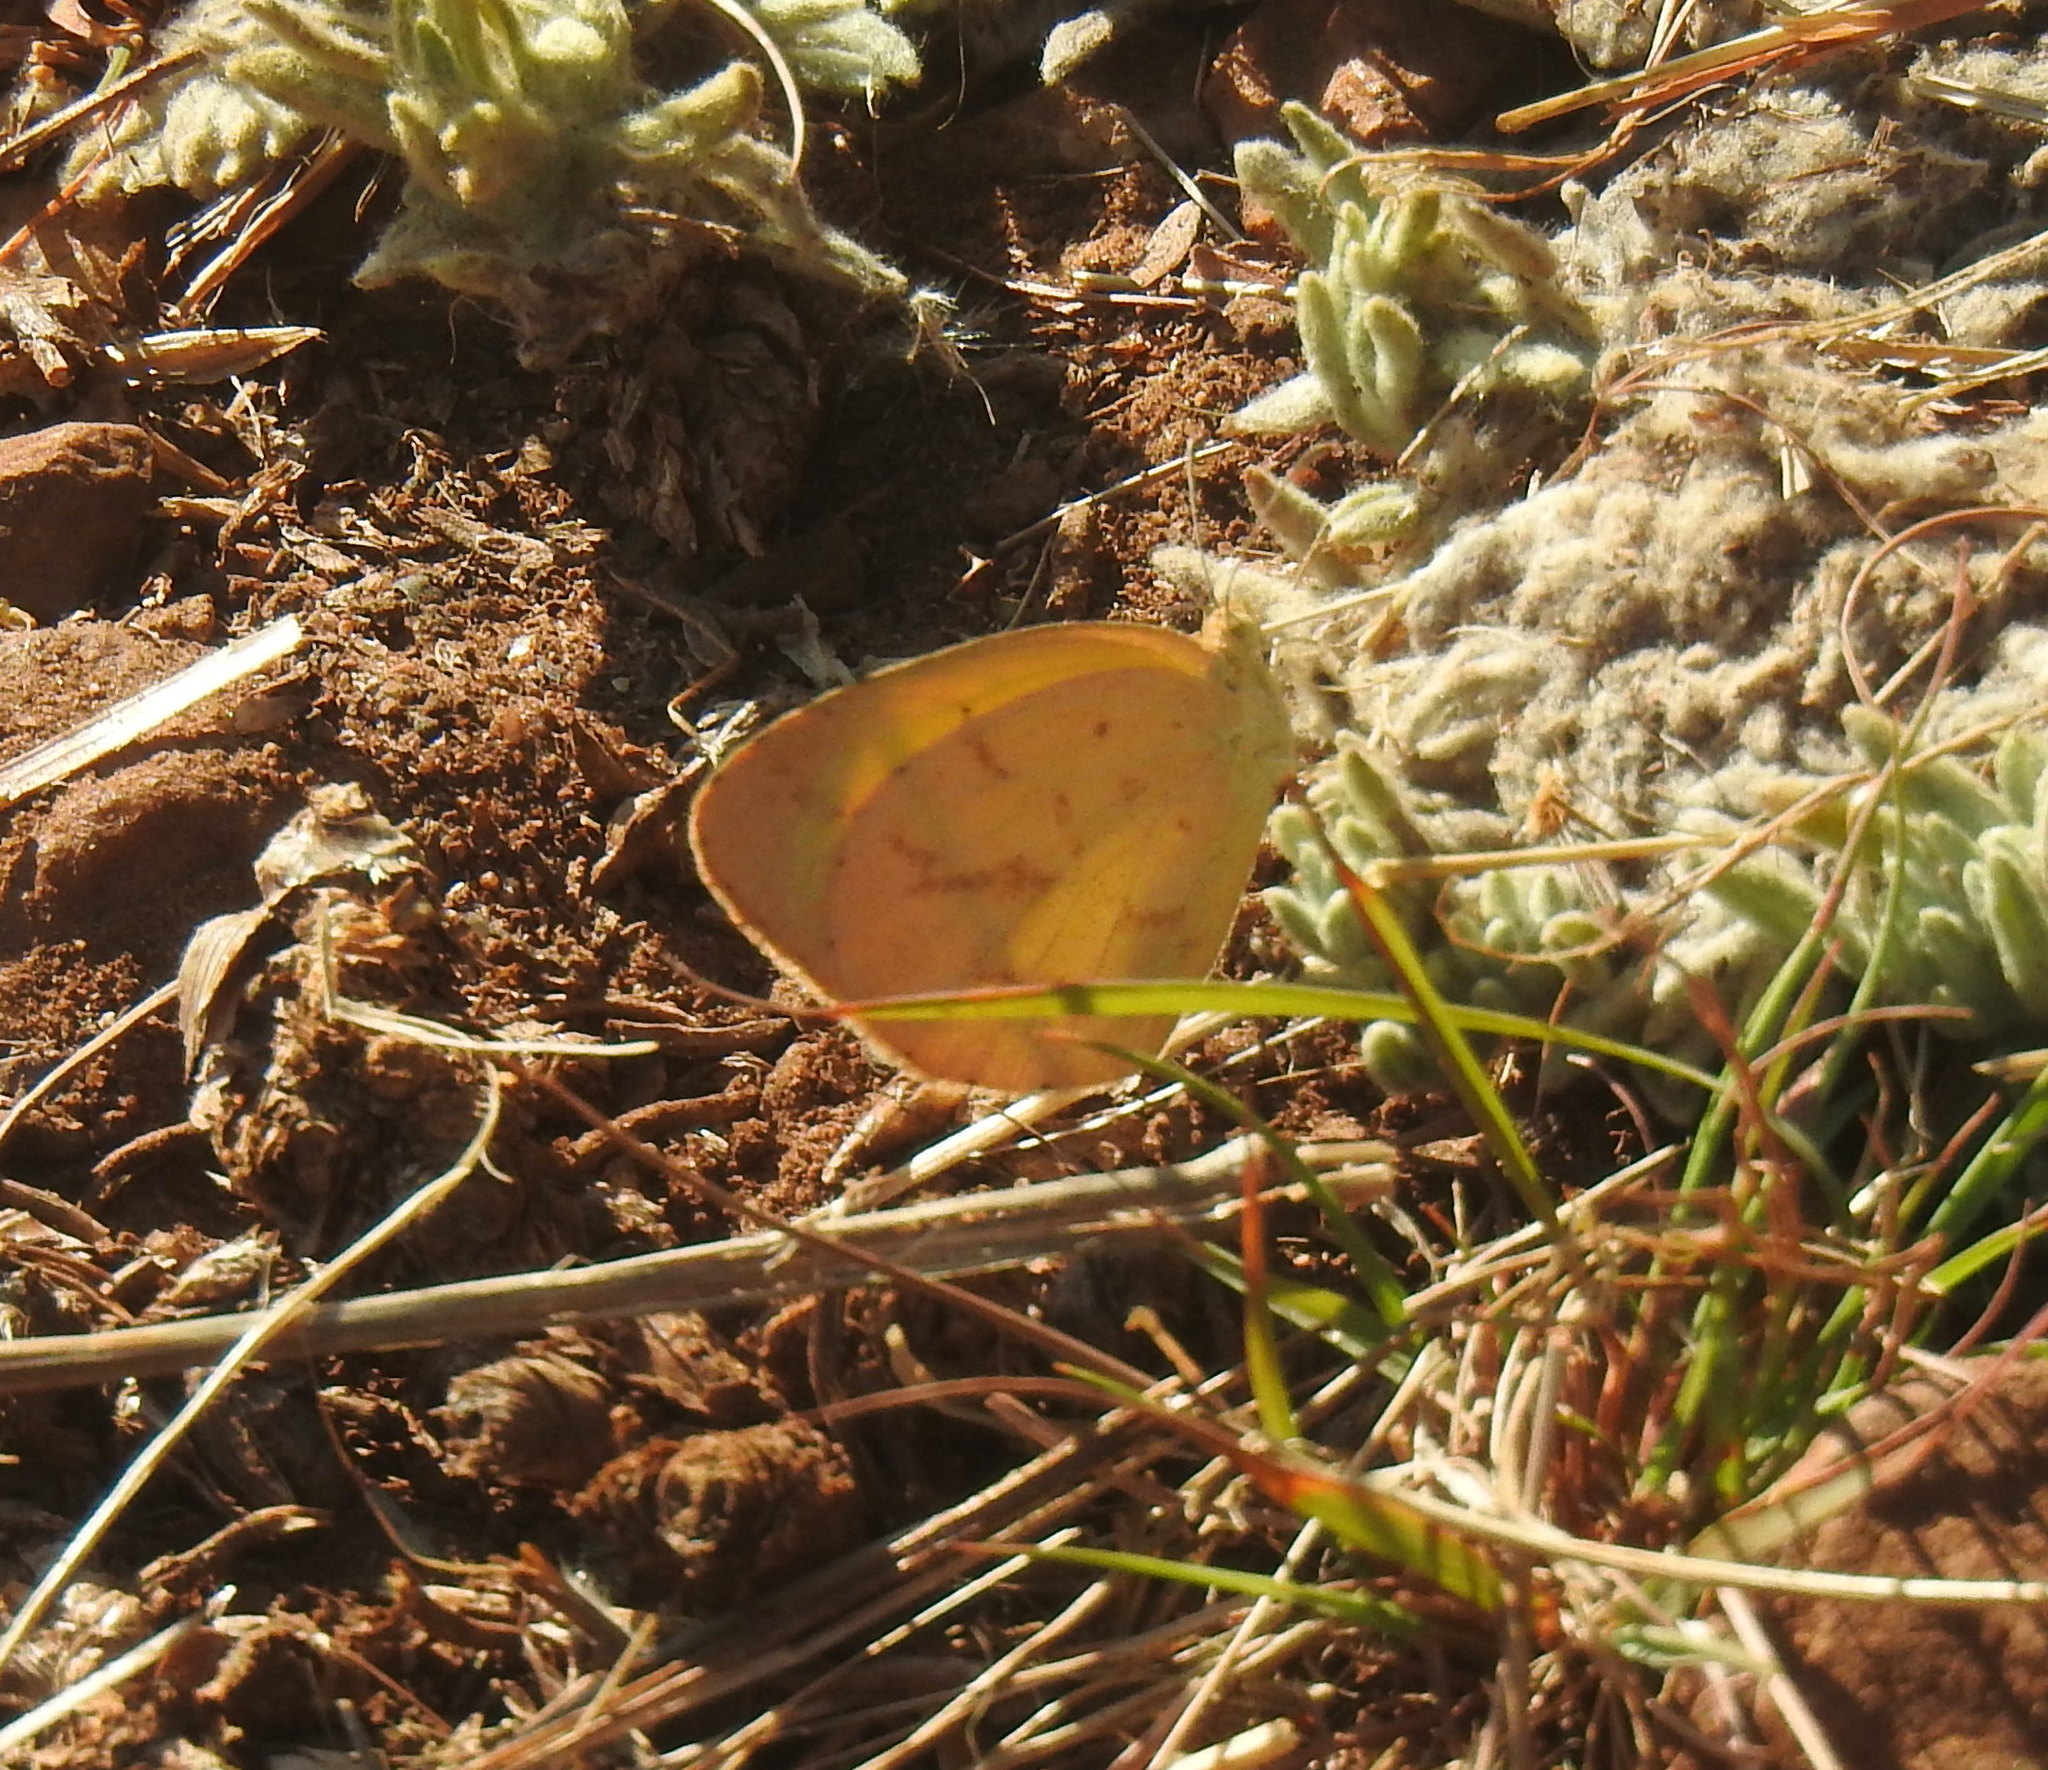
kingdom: Animalia
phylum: Arthropoda
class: Insecta
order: Lepidoptera
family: Pieridae
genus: Eurema
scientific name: Eurema brigitta
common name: Small grass yellow
